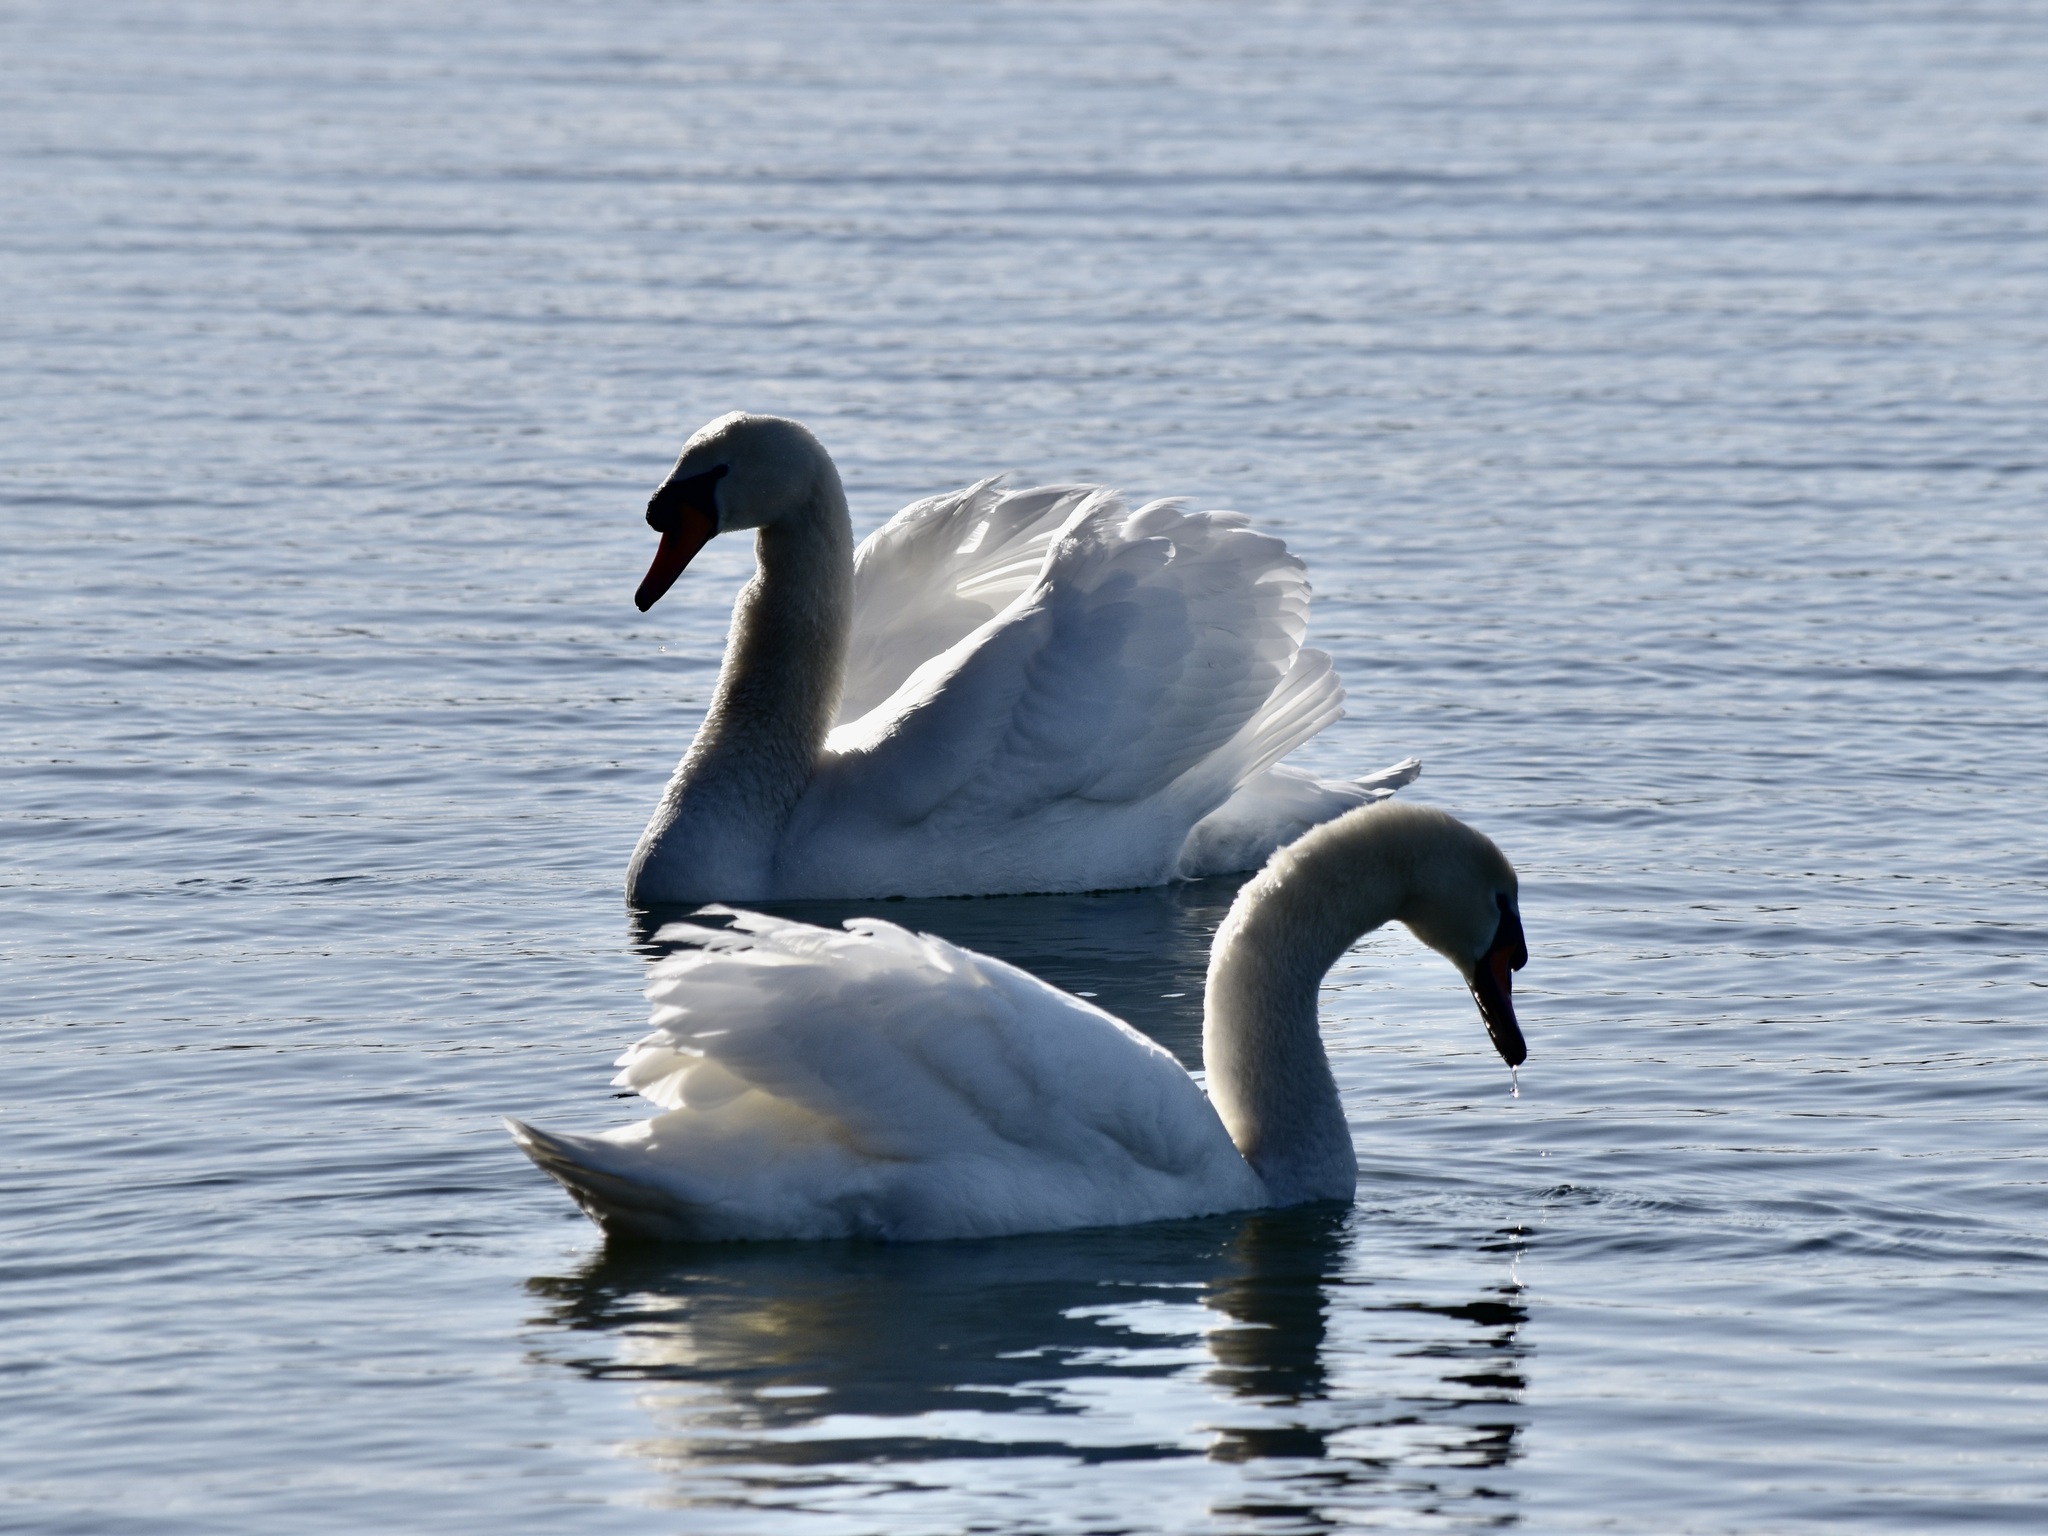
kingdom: Animalia
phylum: Chordata
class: Aves
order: Anseriformes
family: Anatidae
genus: Cygnus
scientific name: Cygnus olor
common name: Mute swan
